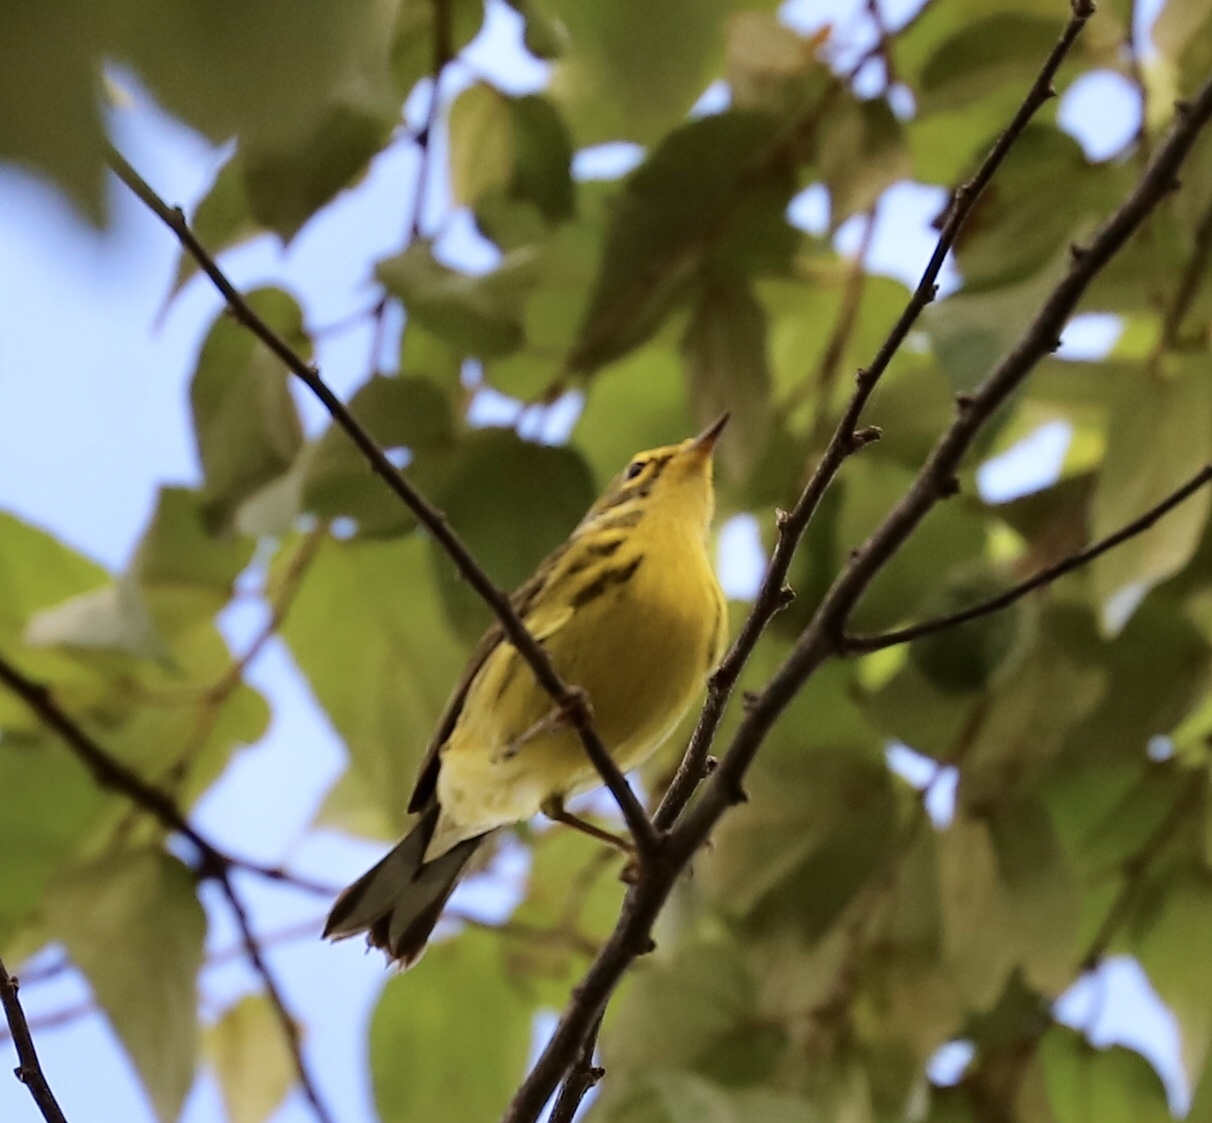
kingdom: Animalia
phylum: Chordata
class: Aves
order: Passeriformes
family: Parulidae
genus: Setophaga
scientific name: Setophaga discolor
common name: Prairie warbler
